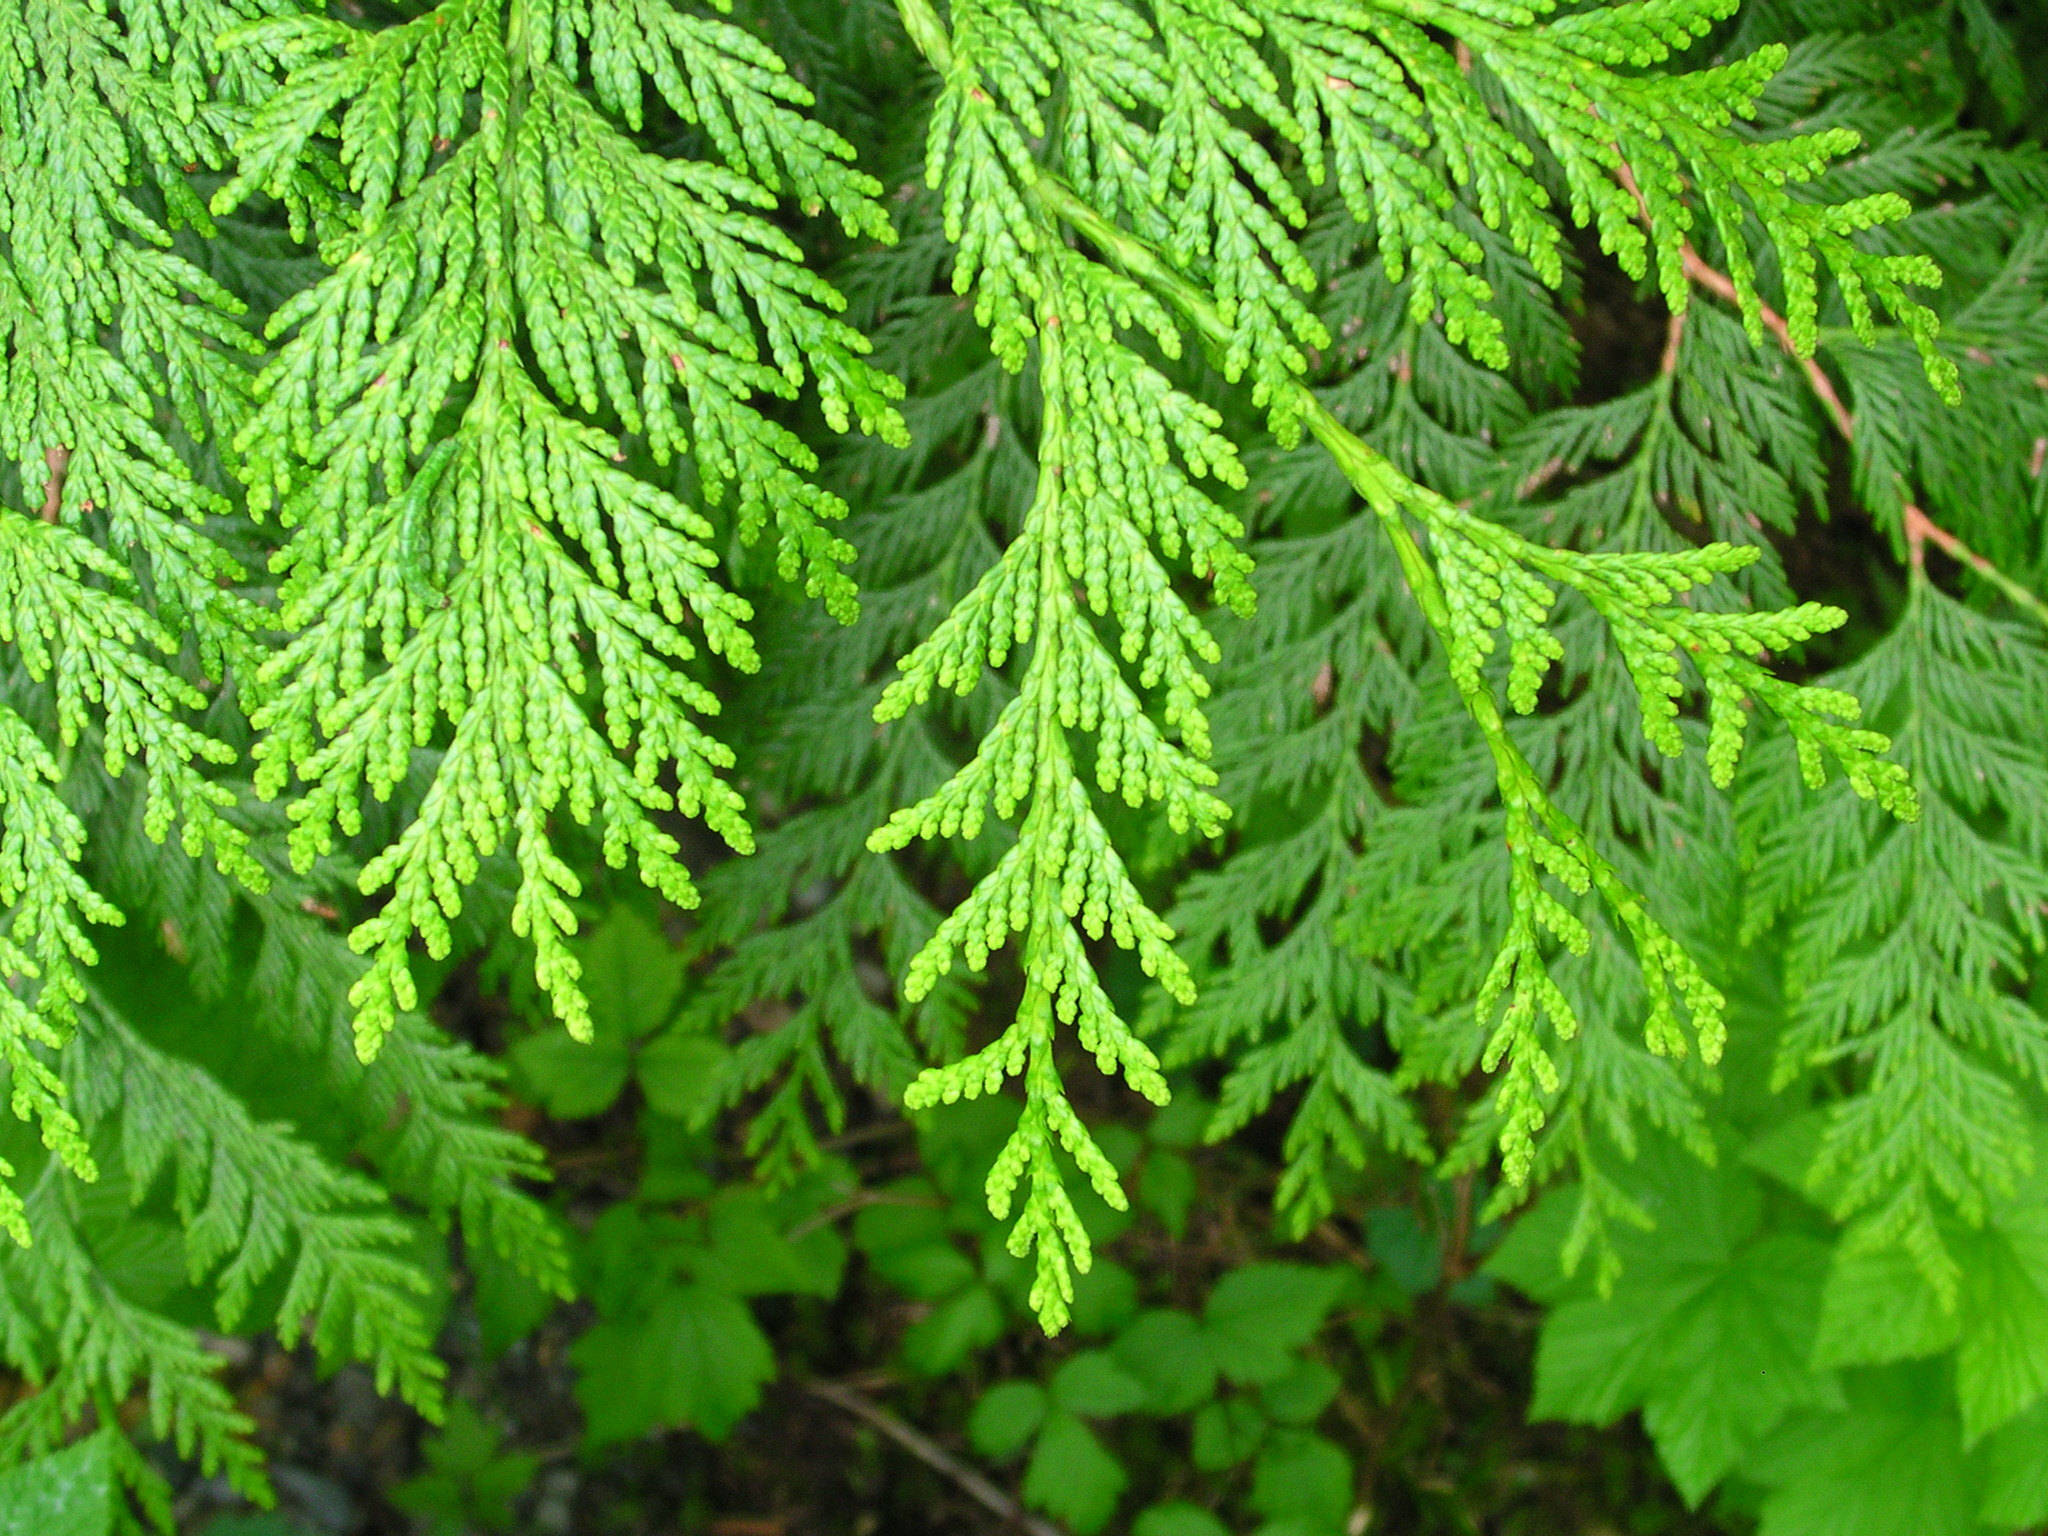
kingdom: Plantae
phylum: Tracheophyta
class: Pinopsida
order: Pinales
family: Cupressaceae
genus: Thuja
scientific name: Thuja plicata
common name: Western red-cedar
